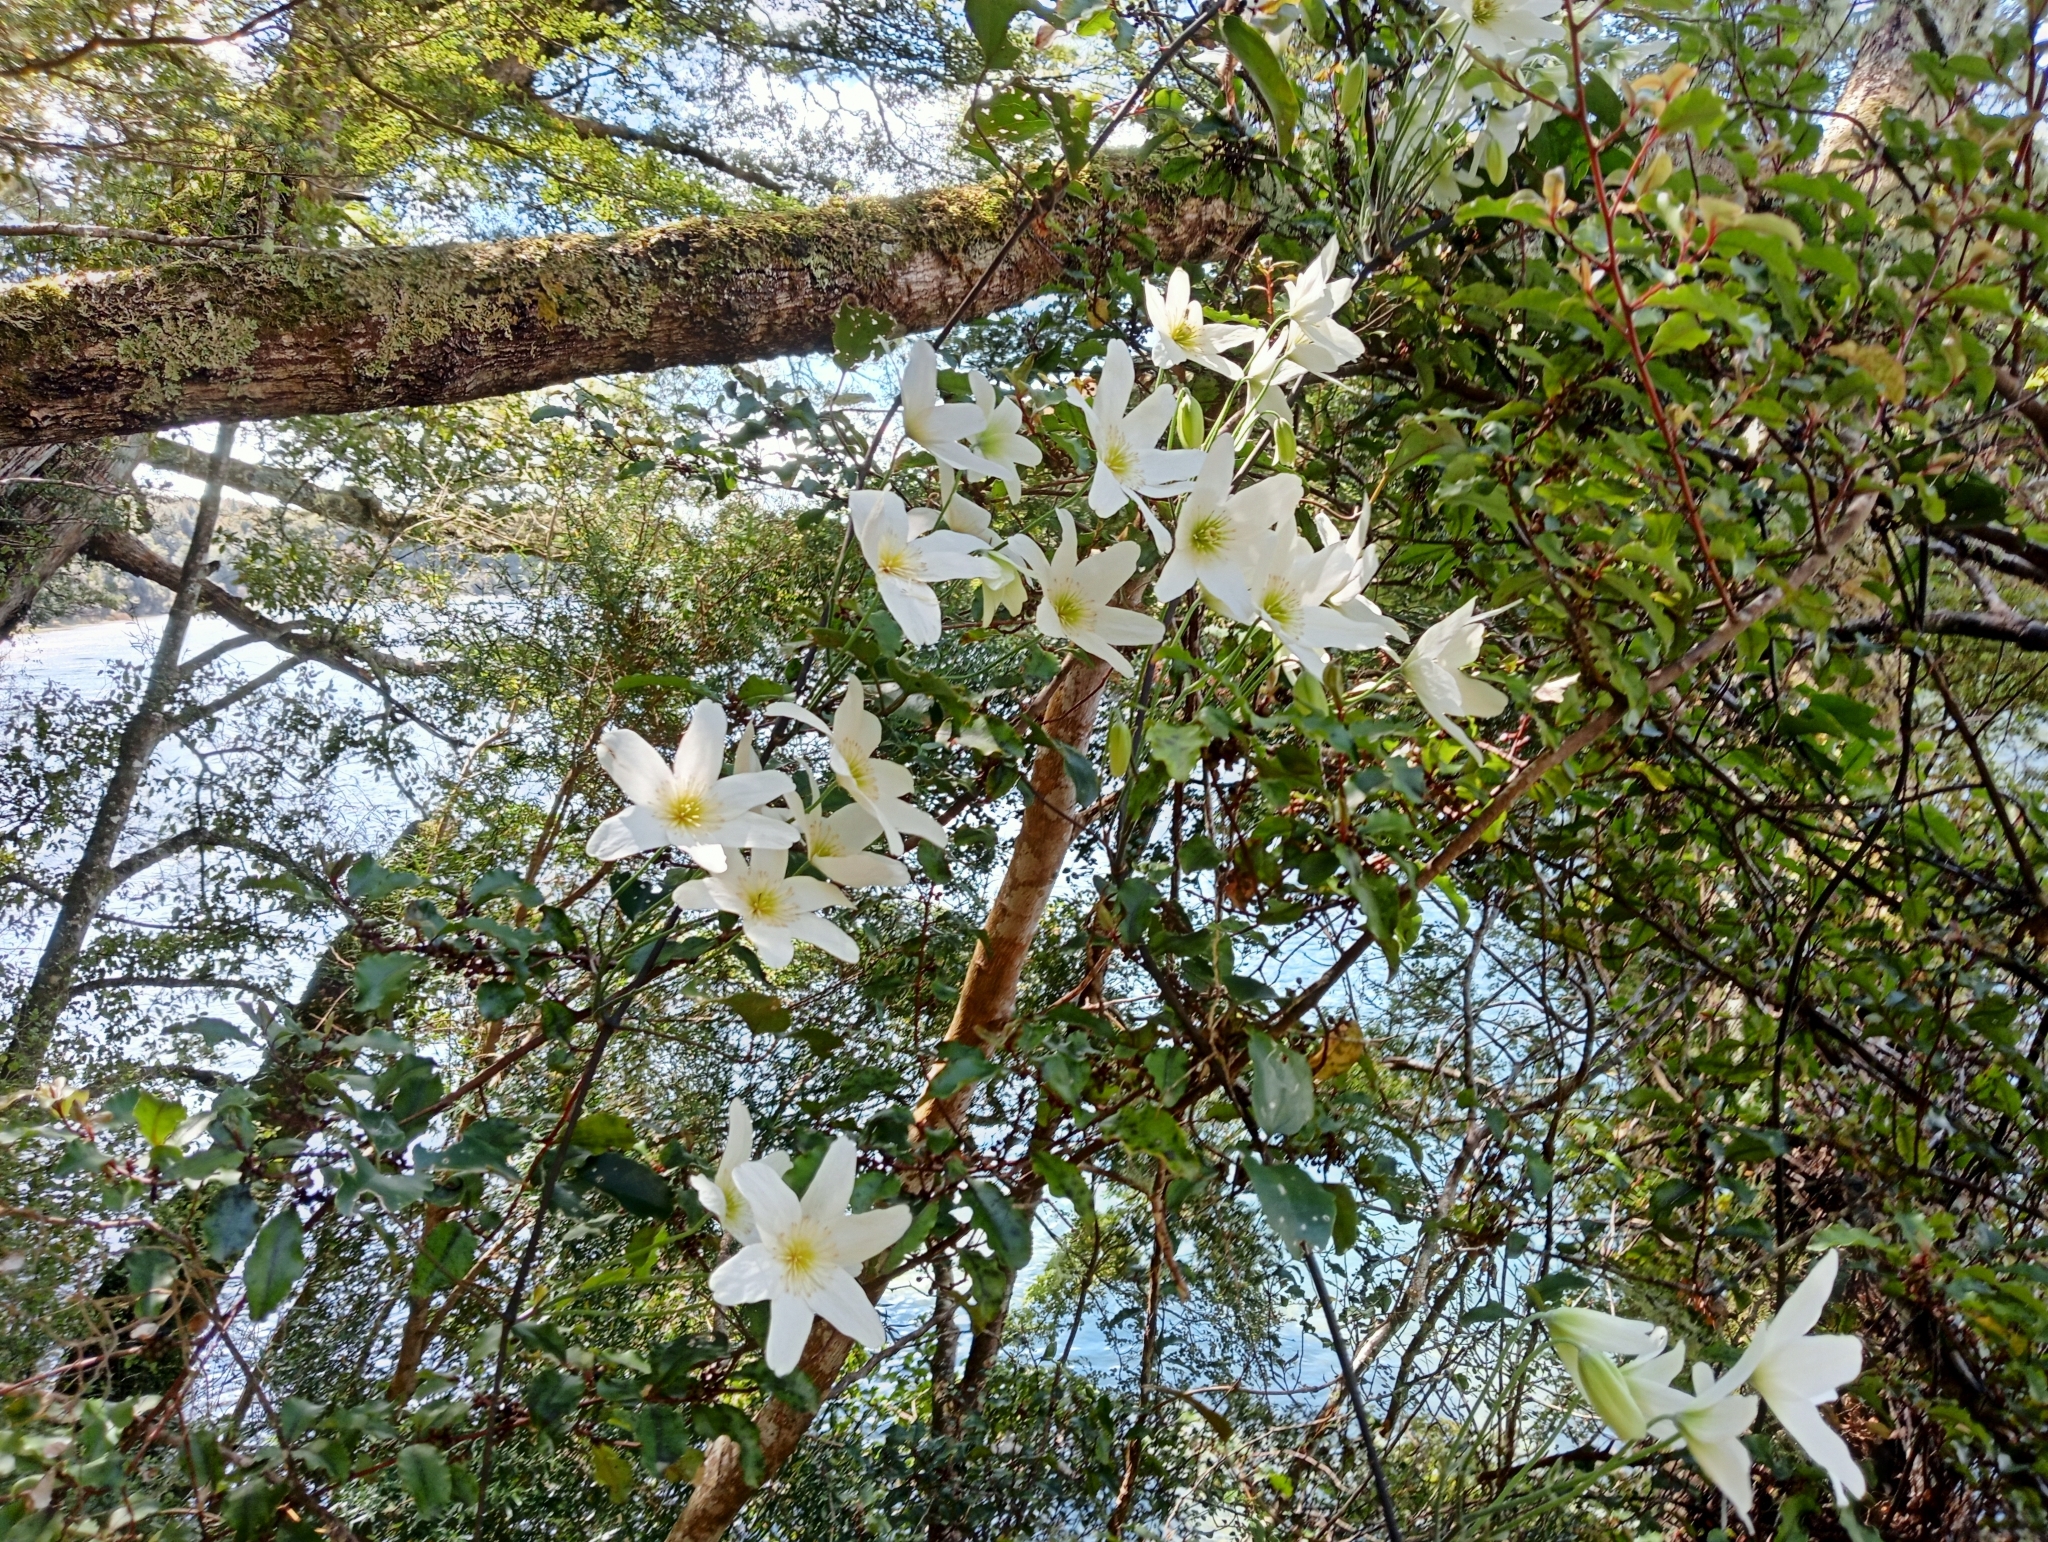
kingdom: Plantae
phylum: Tracheophyta
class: Magnoliopsida
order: Ranunculales
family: Ranunculaceae
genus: Clematis
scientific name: Clematis paniculata
